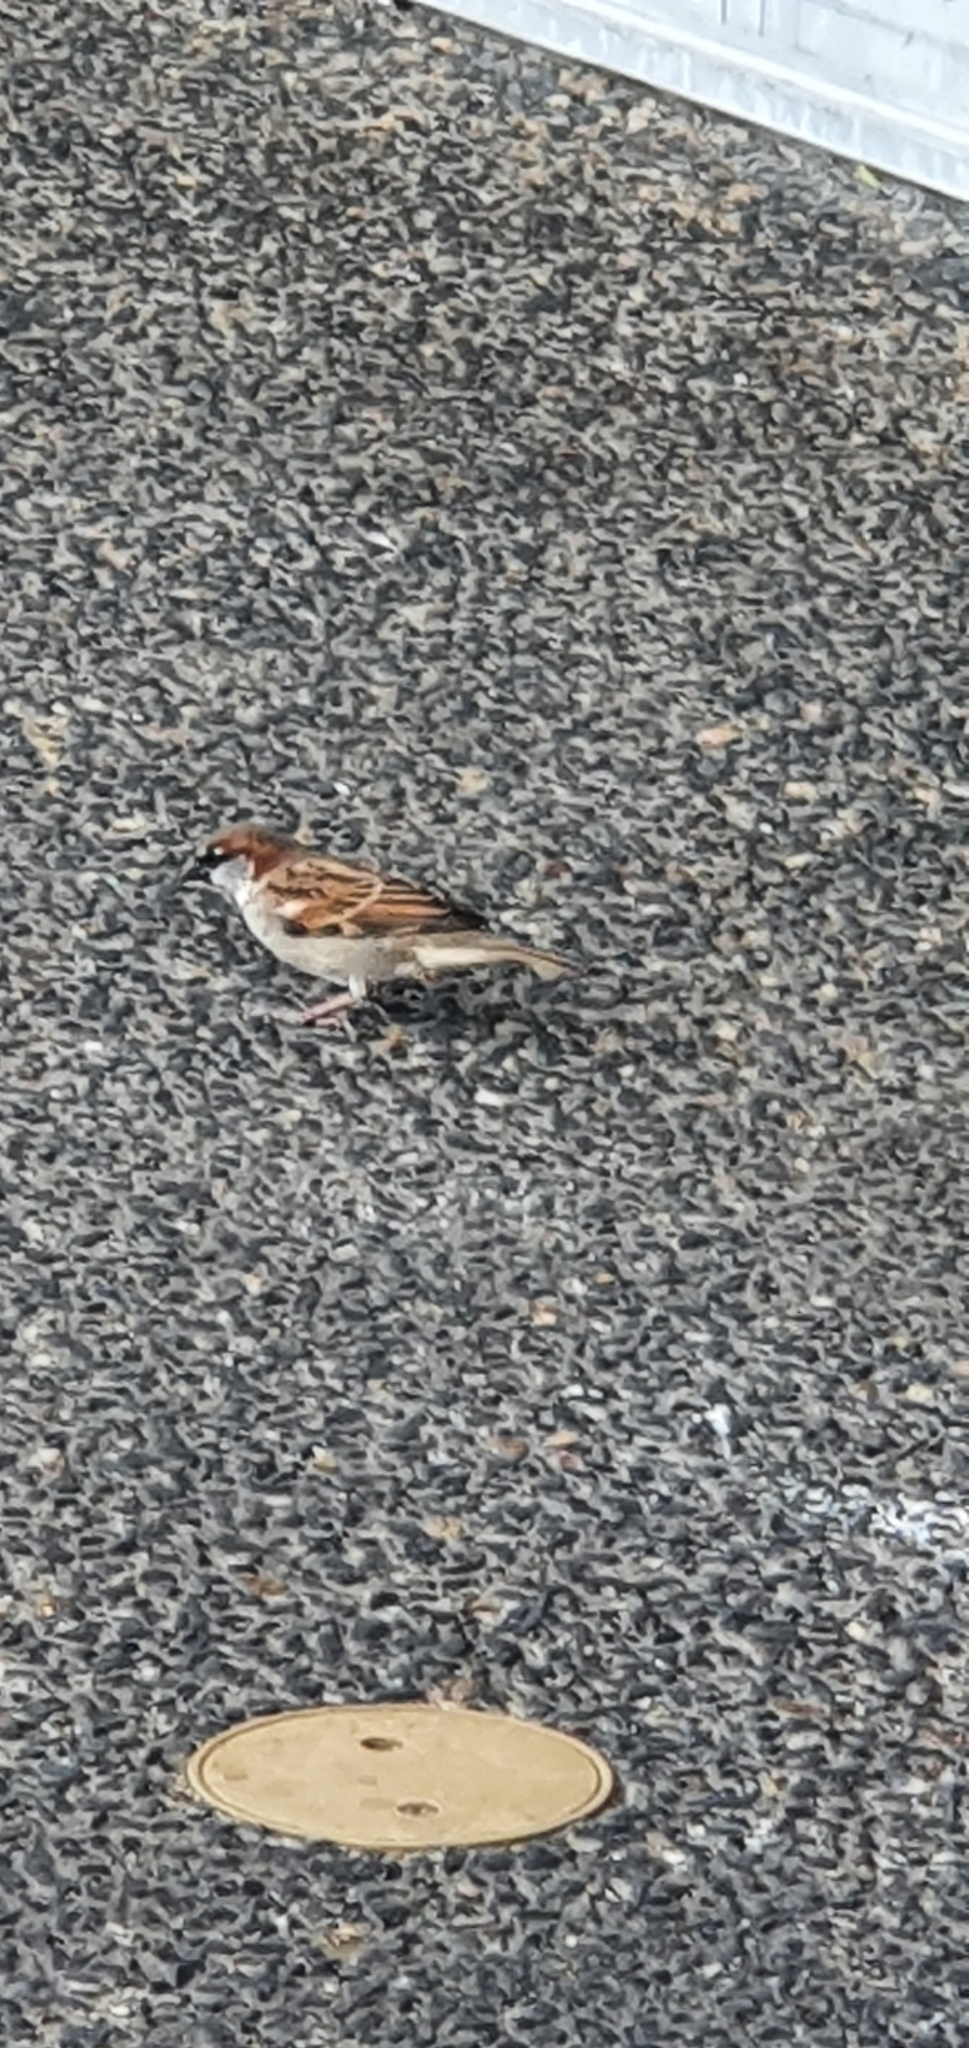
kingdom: Animalia
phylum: Chordata
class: Aves
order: Passeriformes
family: Passeridae
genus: Passer
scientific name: Passer domesticus
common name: House sparrow
